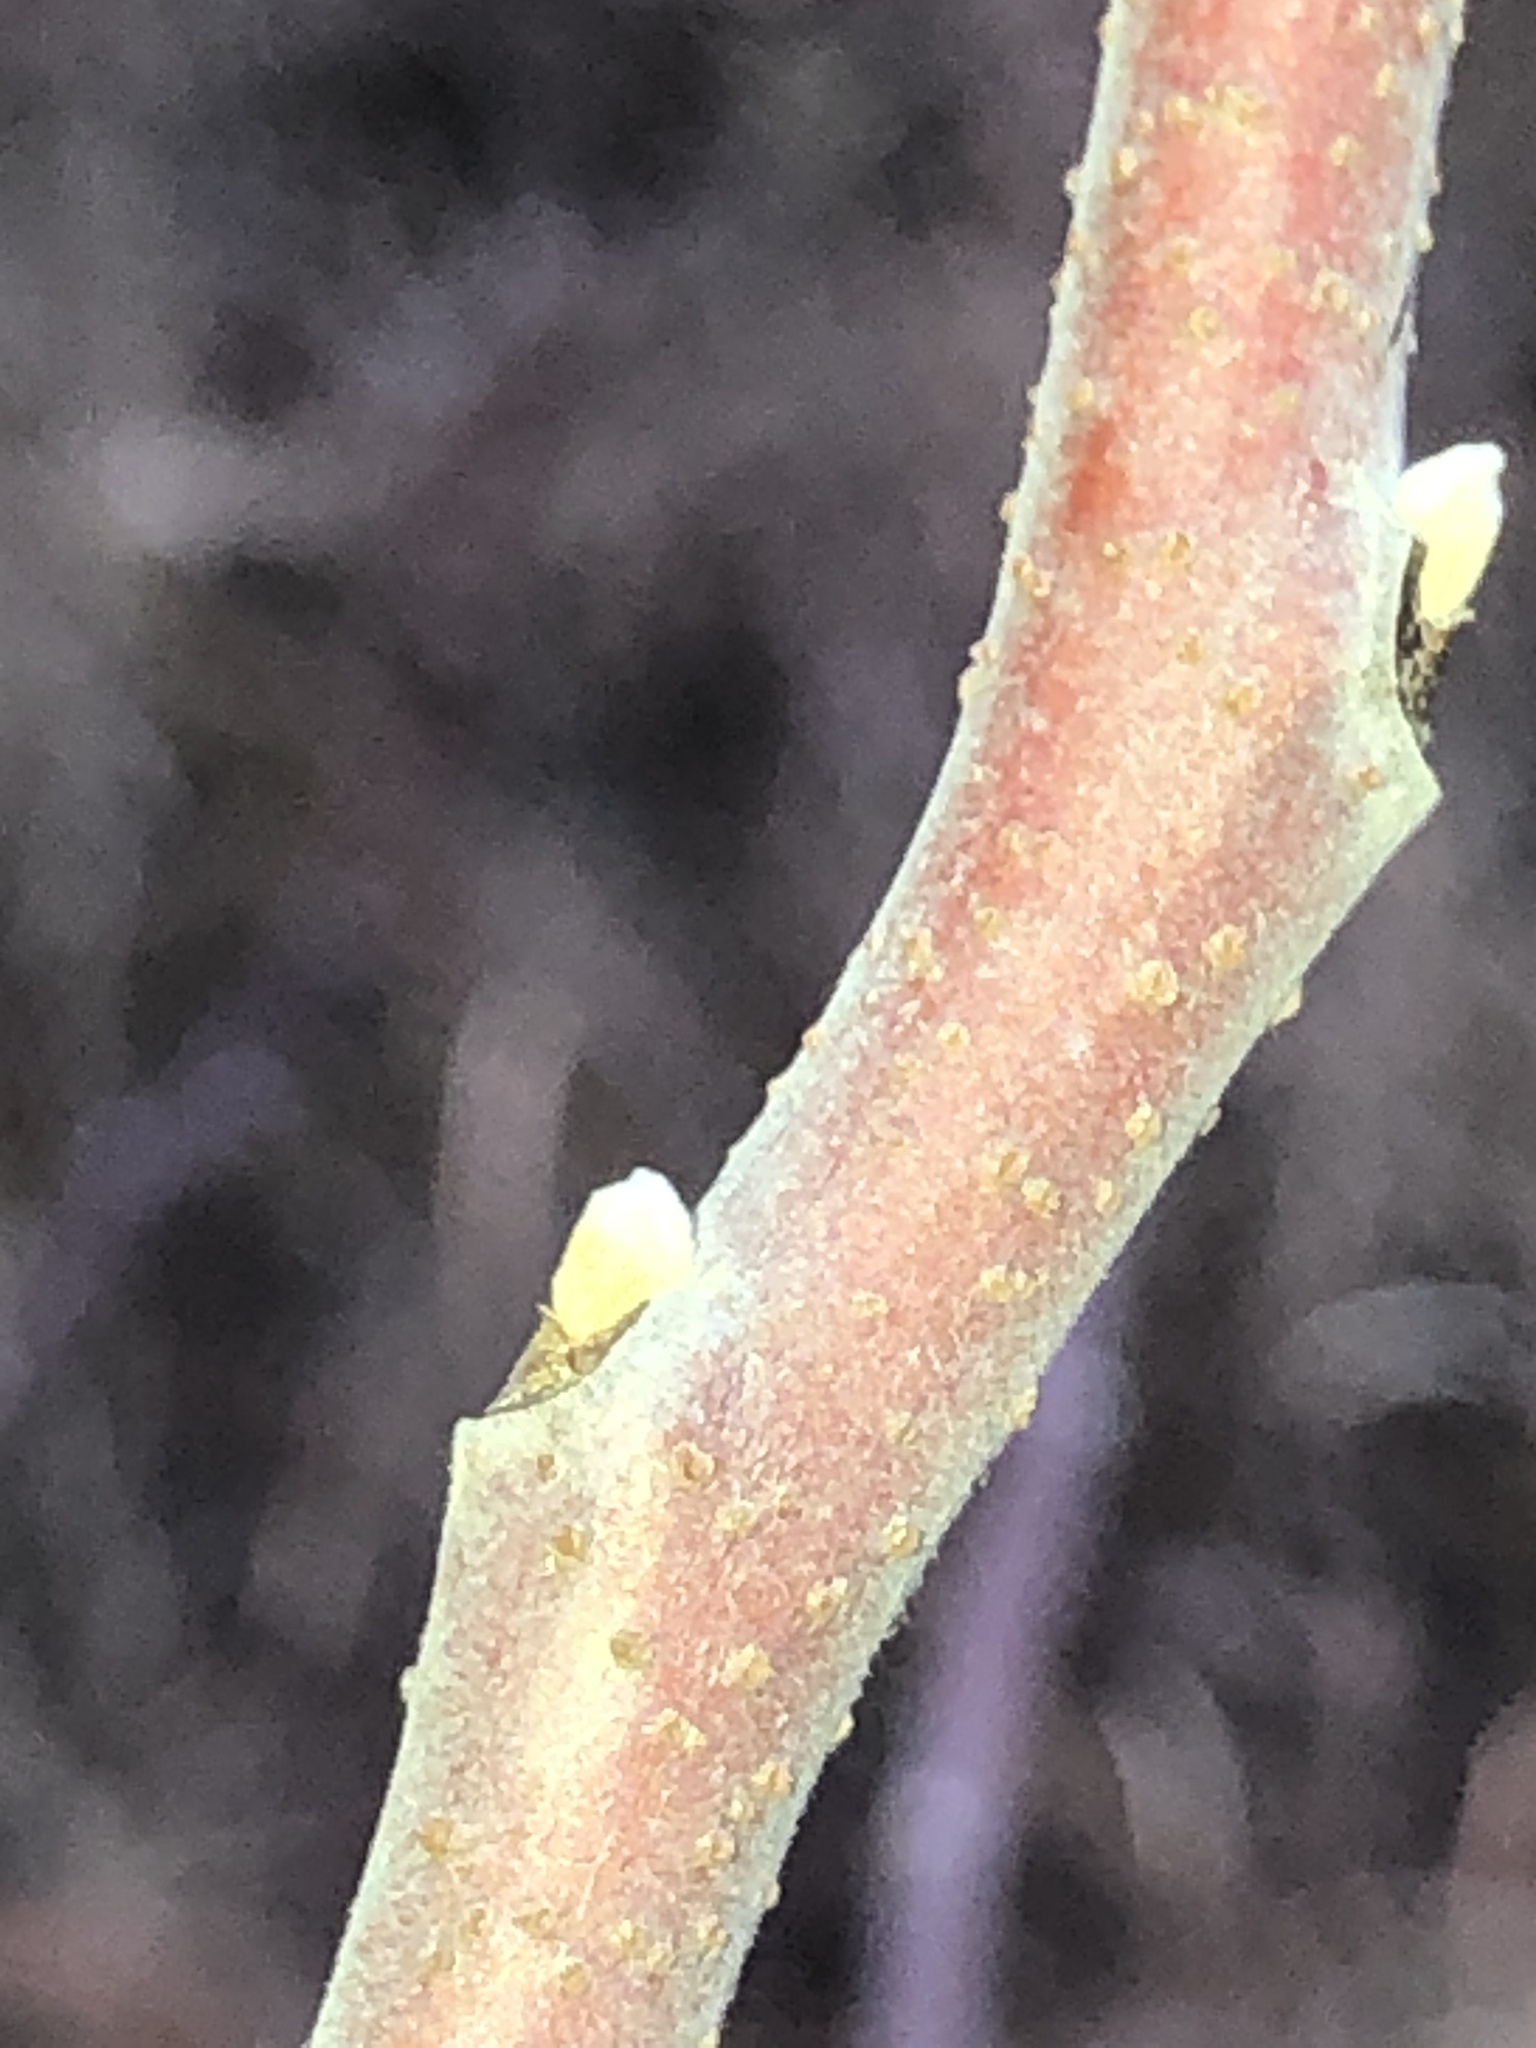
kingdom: Plantae
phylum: Tracheophyta
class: Magnoliopsida
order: Sapindales
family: Anacardiaceae
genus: Rhus
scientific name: Rhus copallina
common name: Shining sumac
